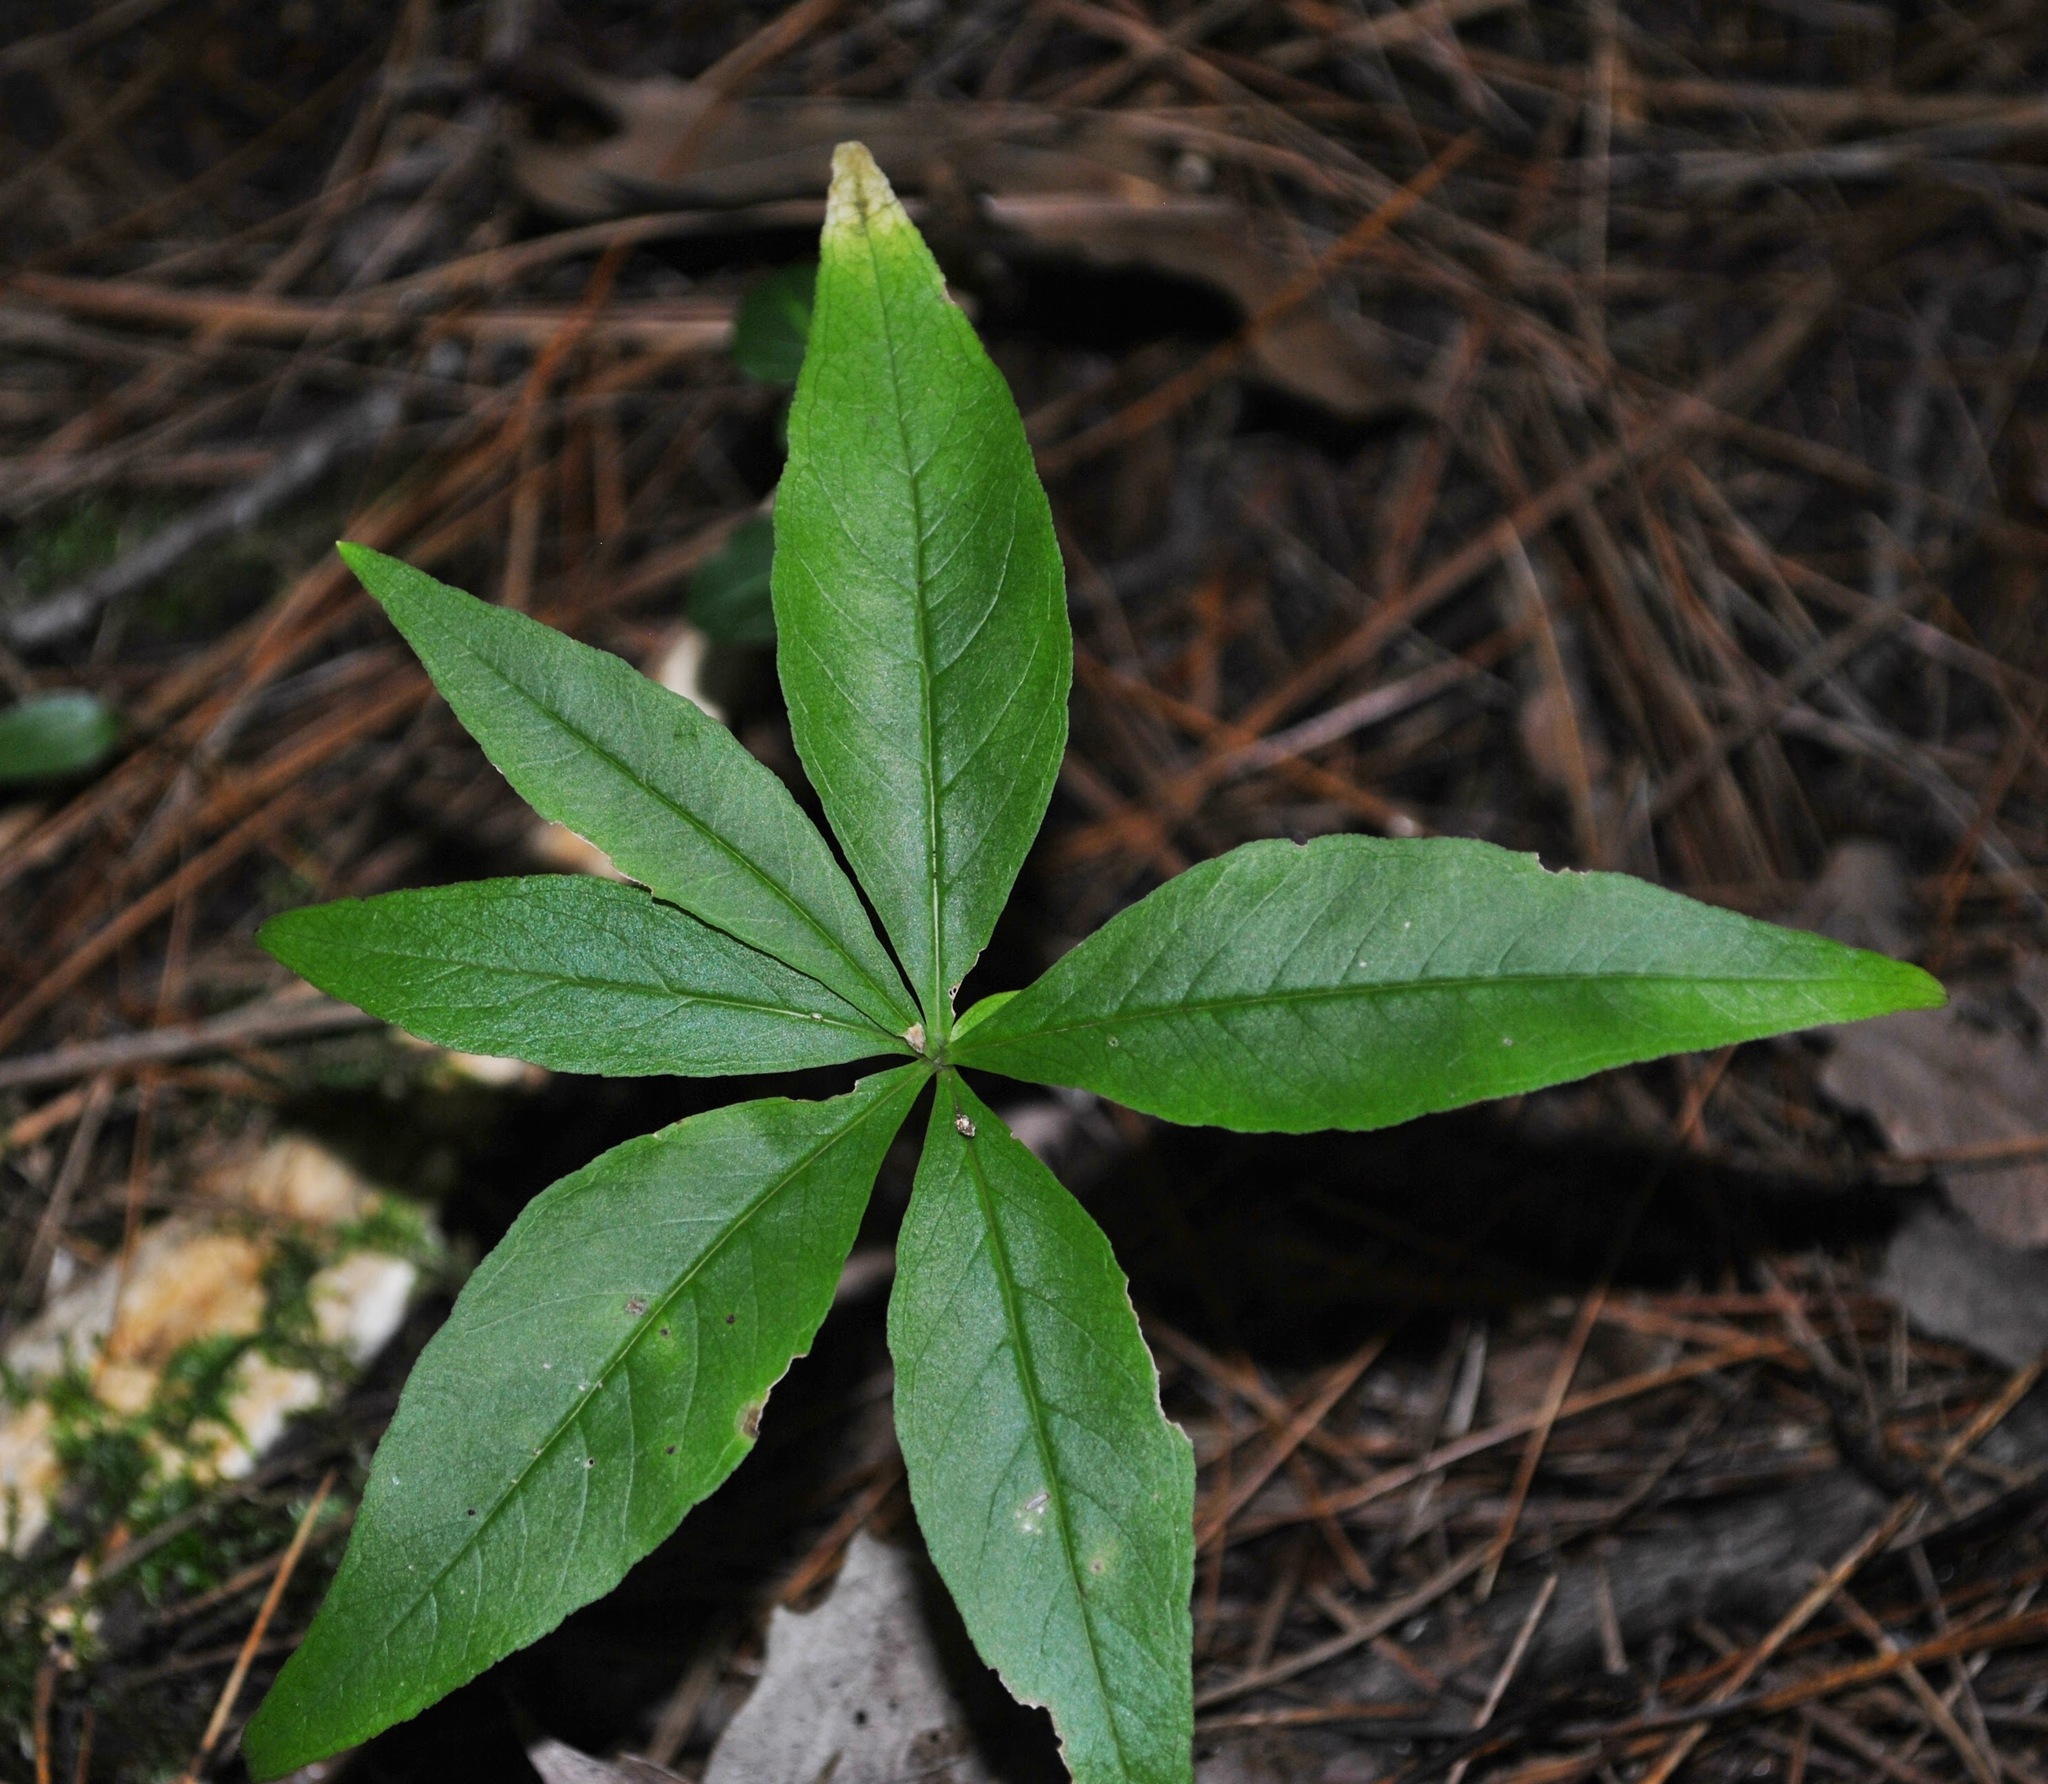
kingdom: Plantae
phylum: Tracheophyta
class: Magnoliopsida
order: Ericales
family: Primulaceae
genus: Lysimachia
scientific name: Lysimachia borealis
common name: American starflower
